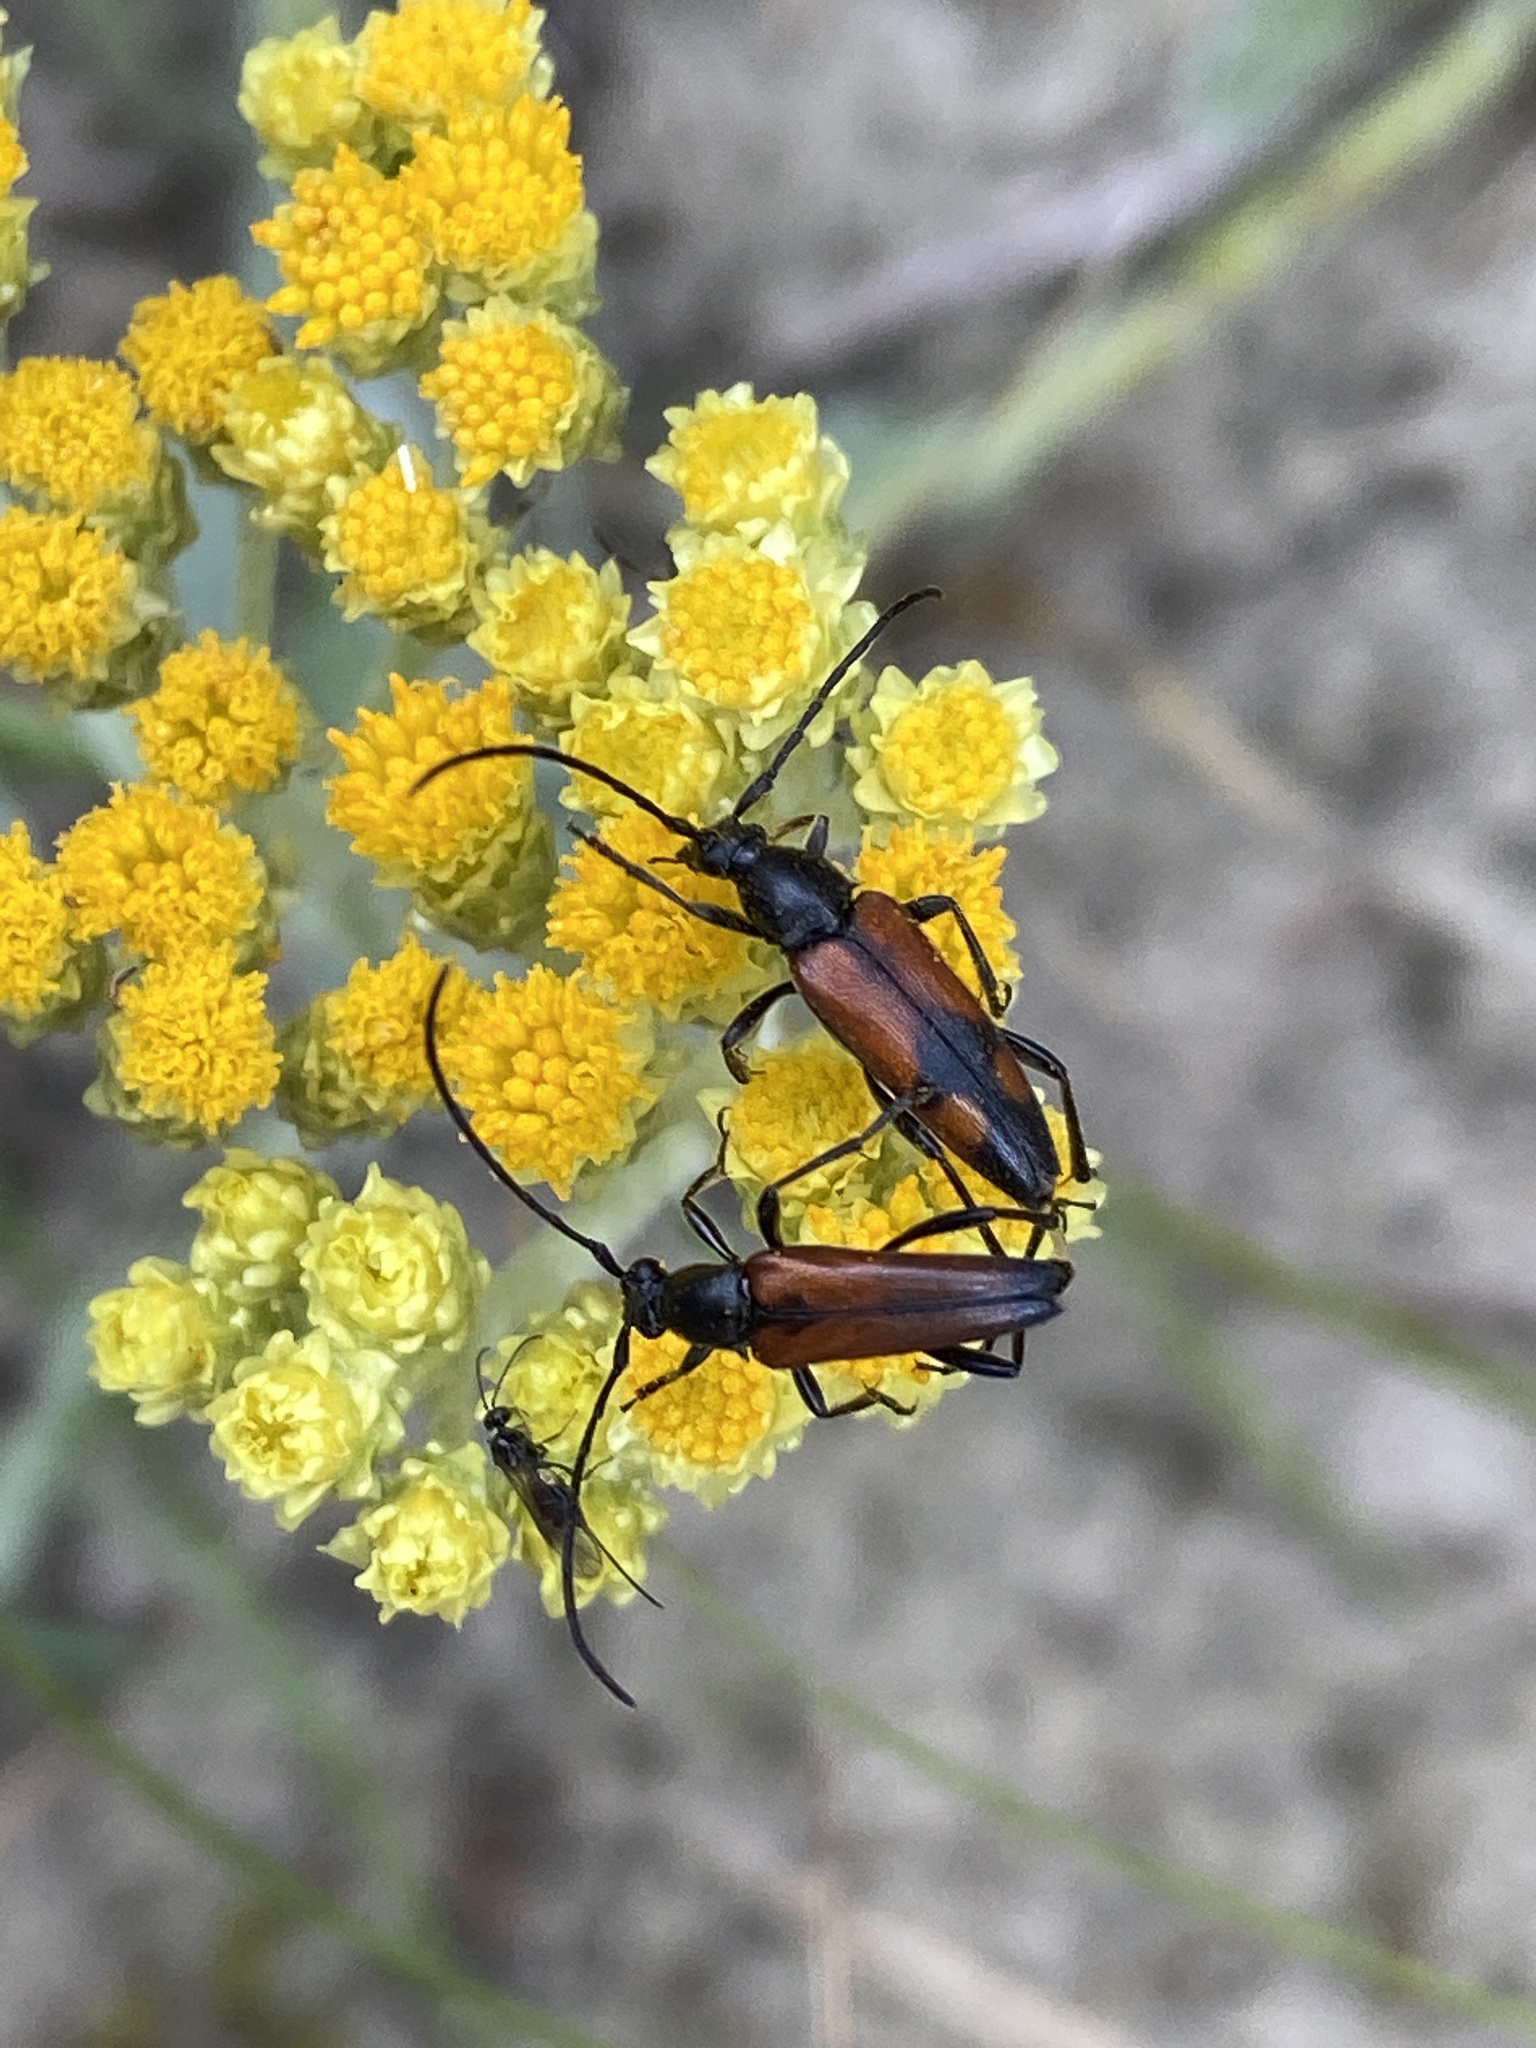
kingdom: Animalia
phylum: Arthropoda
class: Insecta
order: Coleoptera
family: Cerambycidae
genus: Stenurella
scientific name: Stenurella bifasciata
